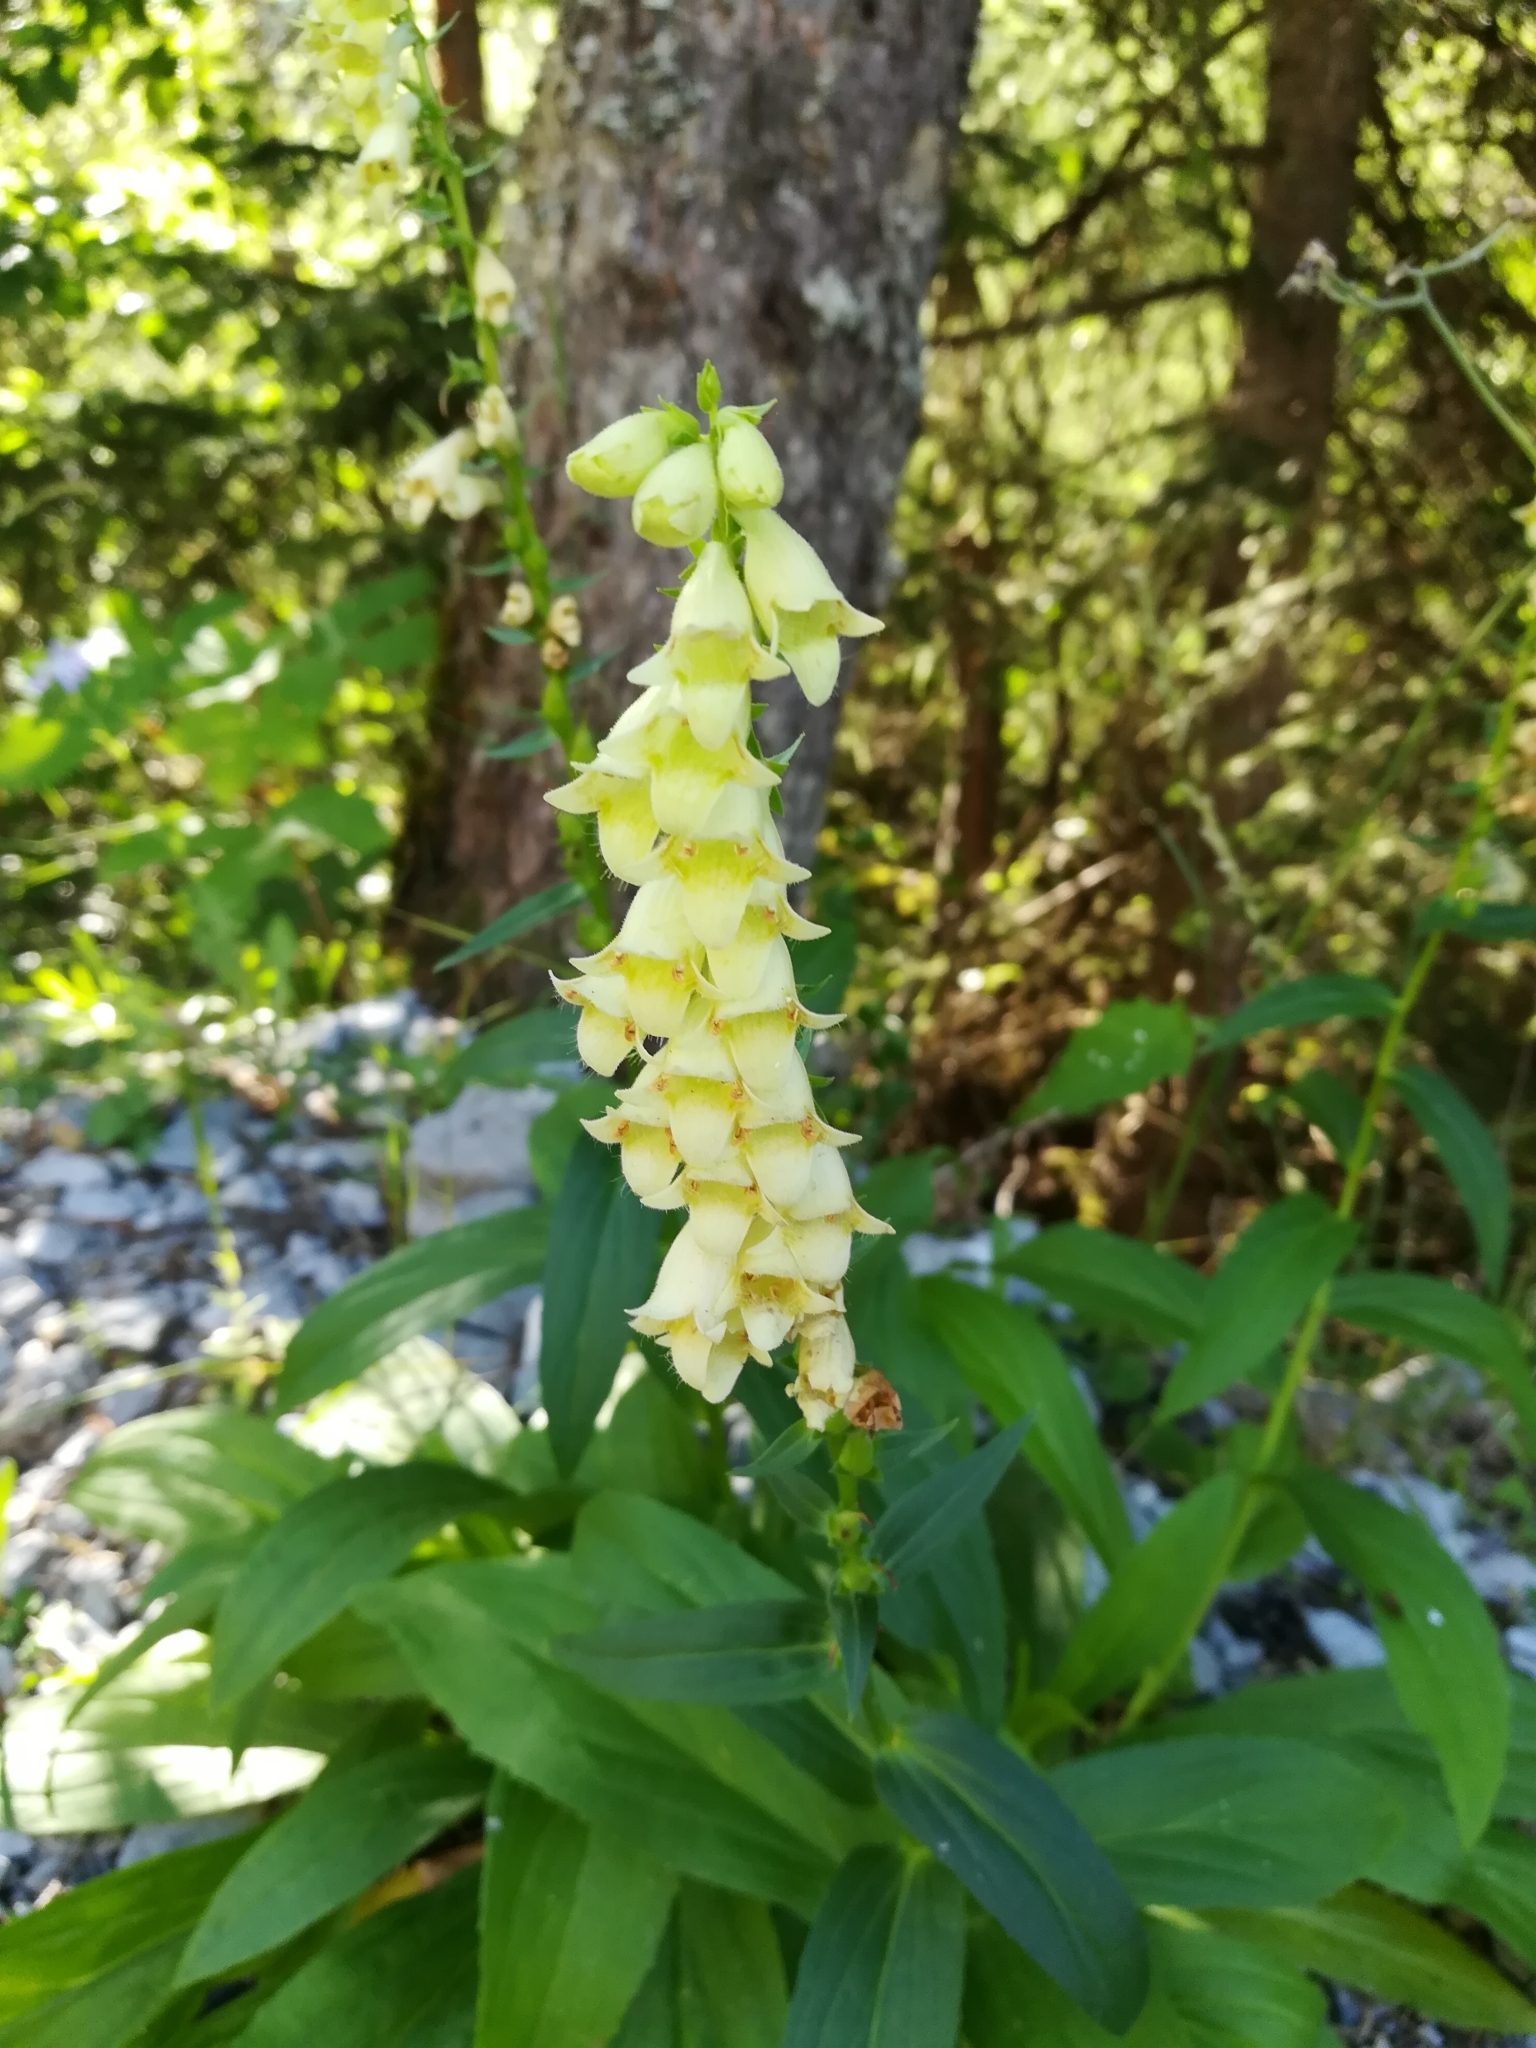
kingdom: Plantae
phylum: Tracheophyta
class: Magnoliopsida
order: Lamiales
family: Plantaginaceae
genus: Digitalis
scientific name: Digitalis lutea
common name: Straw foxglove
